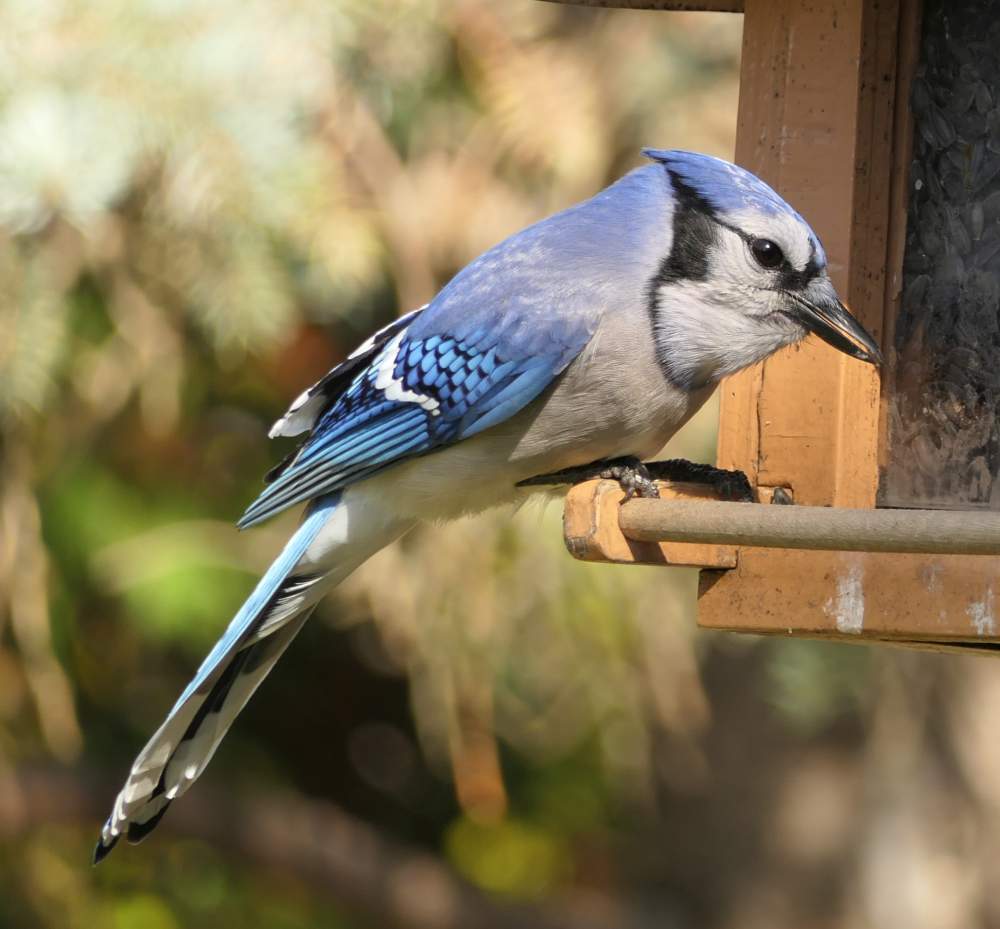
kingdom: Animalia
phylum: Chordata
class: Aves
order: Passeriformes
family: Corvidae
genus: Cyanocitta
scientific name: Cyanocitta cristata
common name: Blue jay
